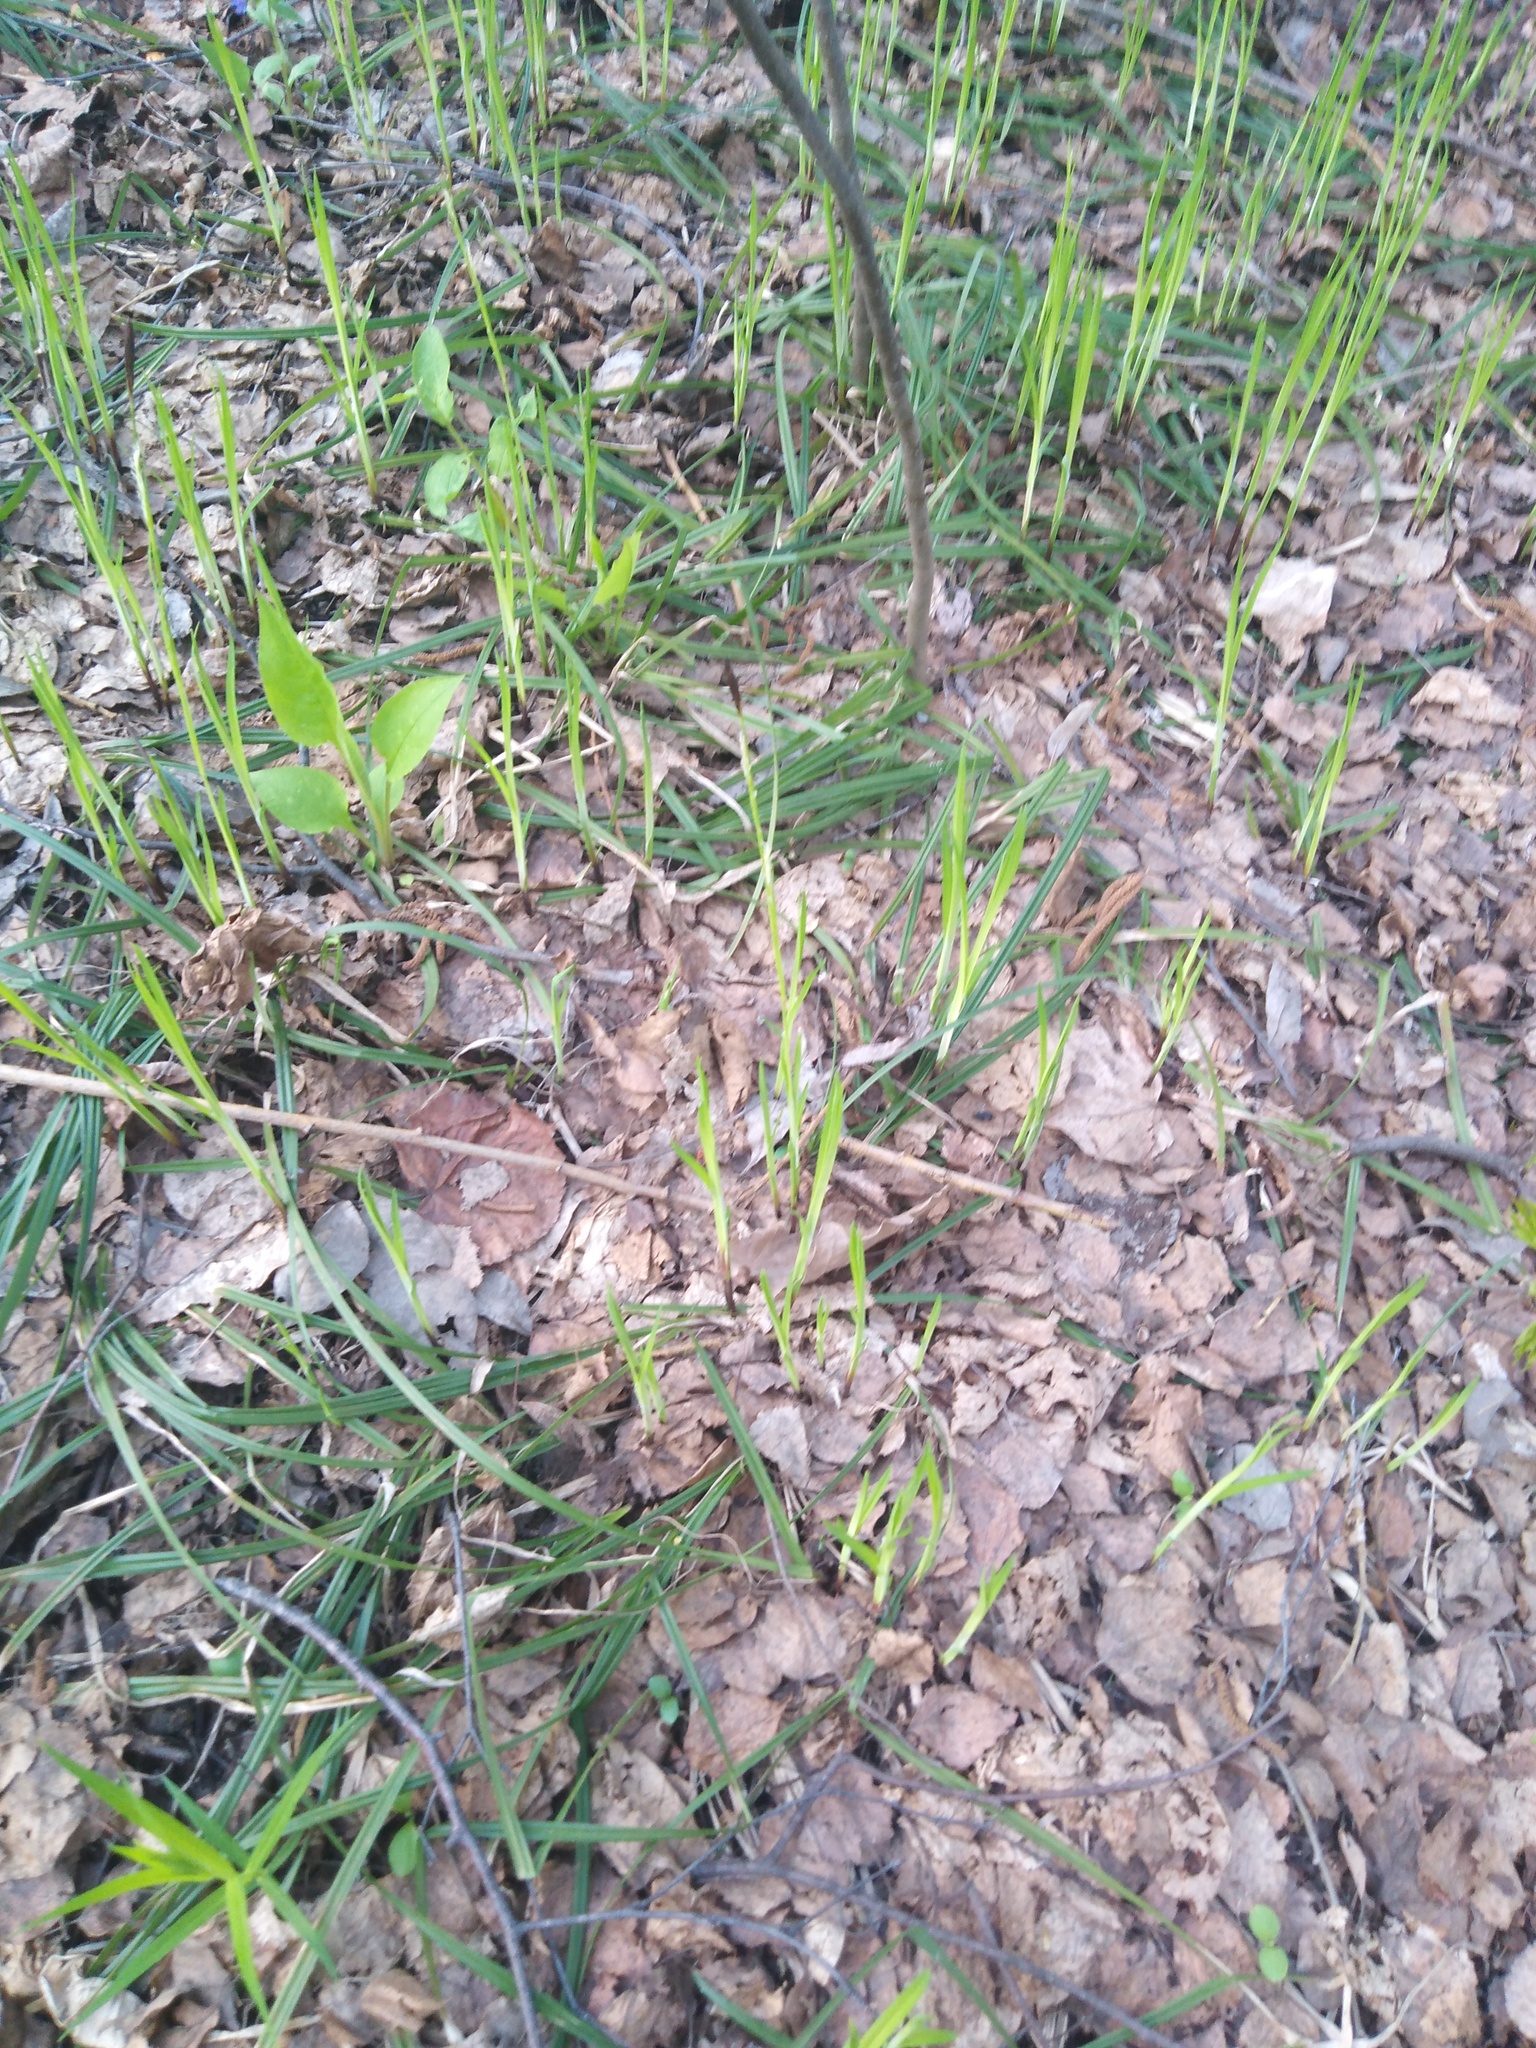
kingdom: Plantae
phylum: Tracheophyta
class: Liliopsida
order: Poales
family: Cyperaceae
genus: Carex
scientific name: Carex pilosa
